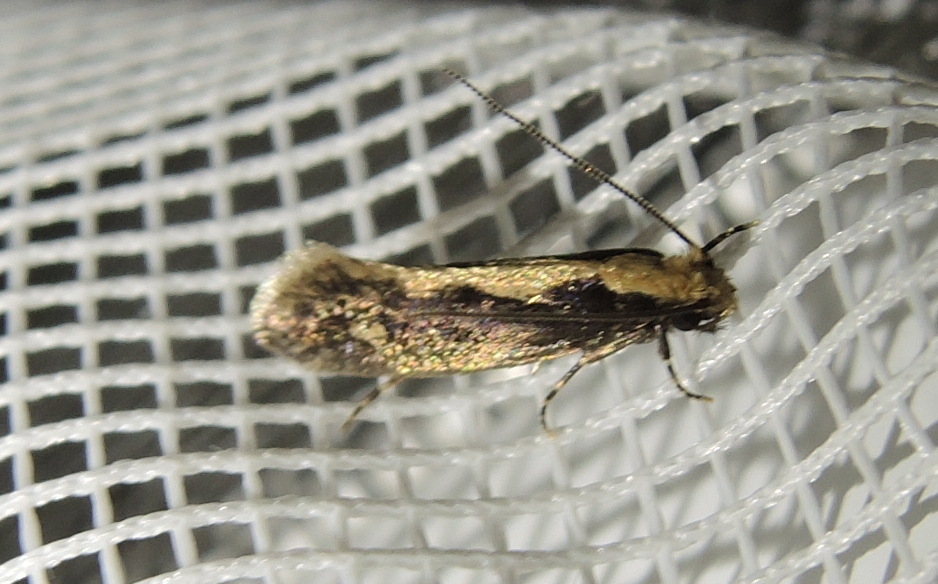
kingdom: Animalia
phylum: Arthropoda
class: Insecta
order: Lepidoptera
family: Tineidae
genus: Monopis
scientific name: Monopis crocicapitella
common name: Moth
